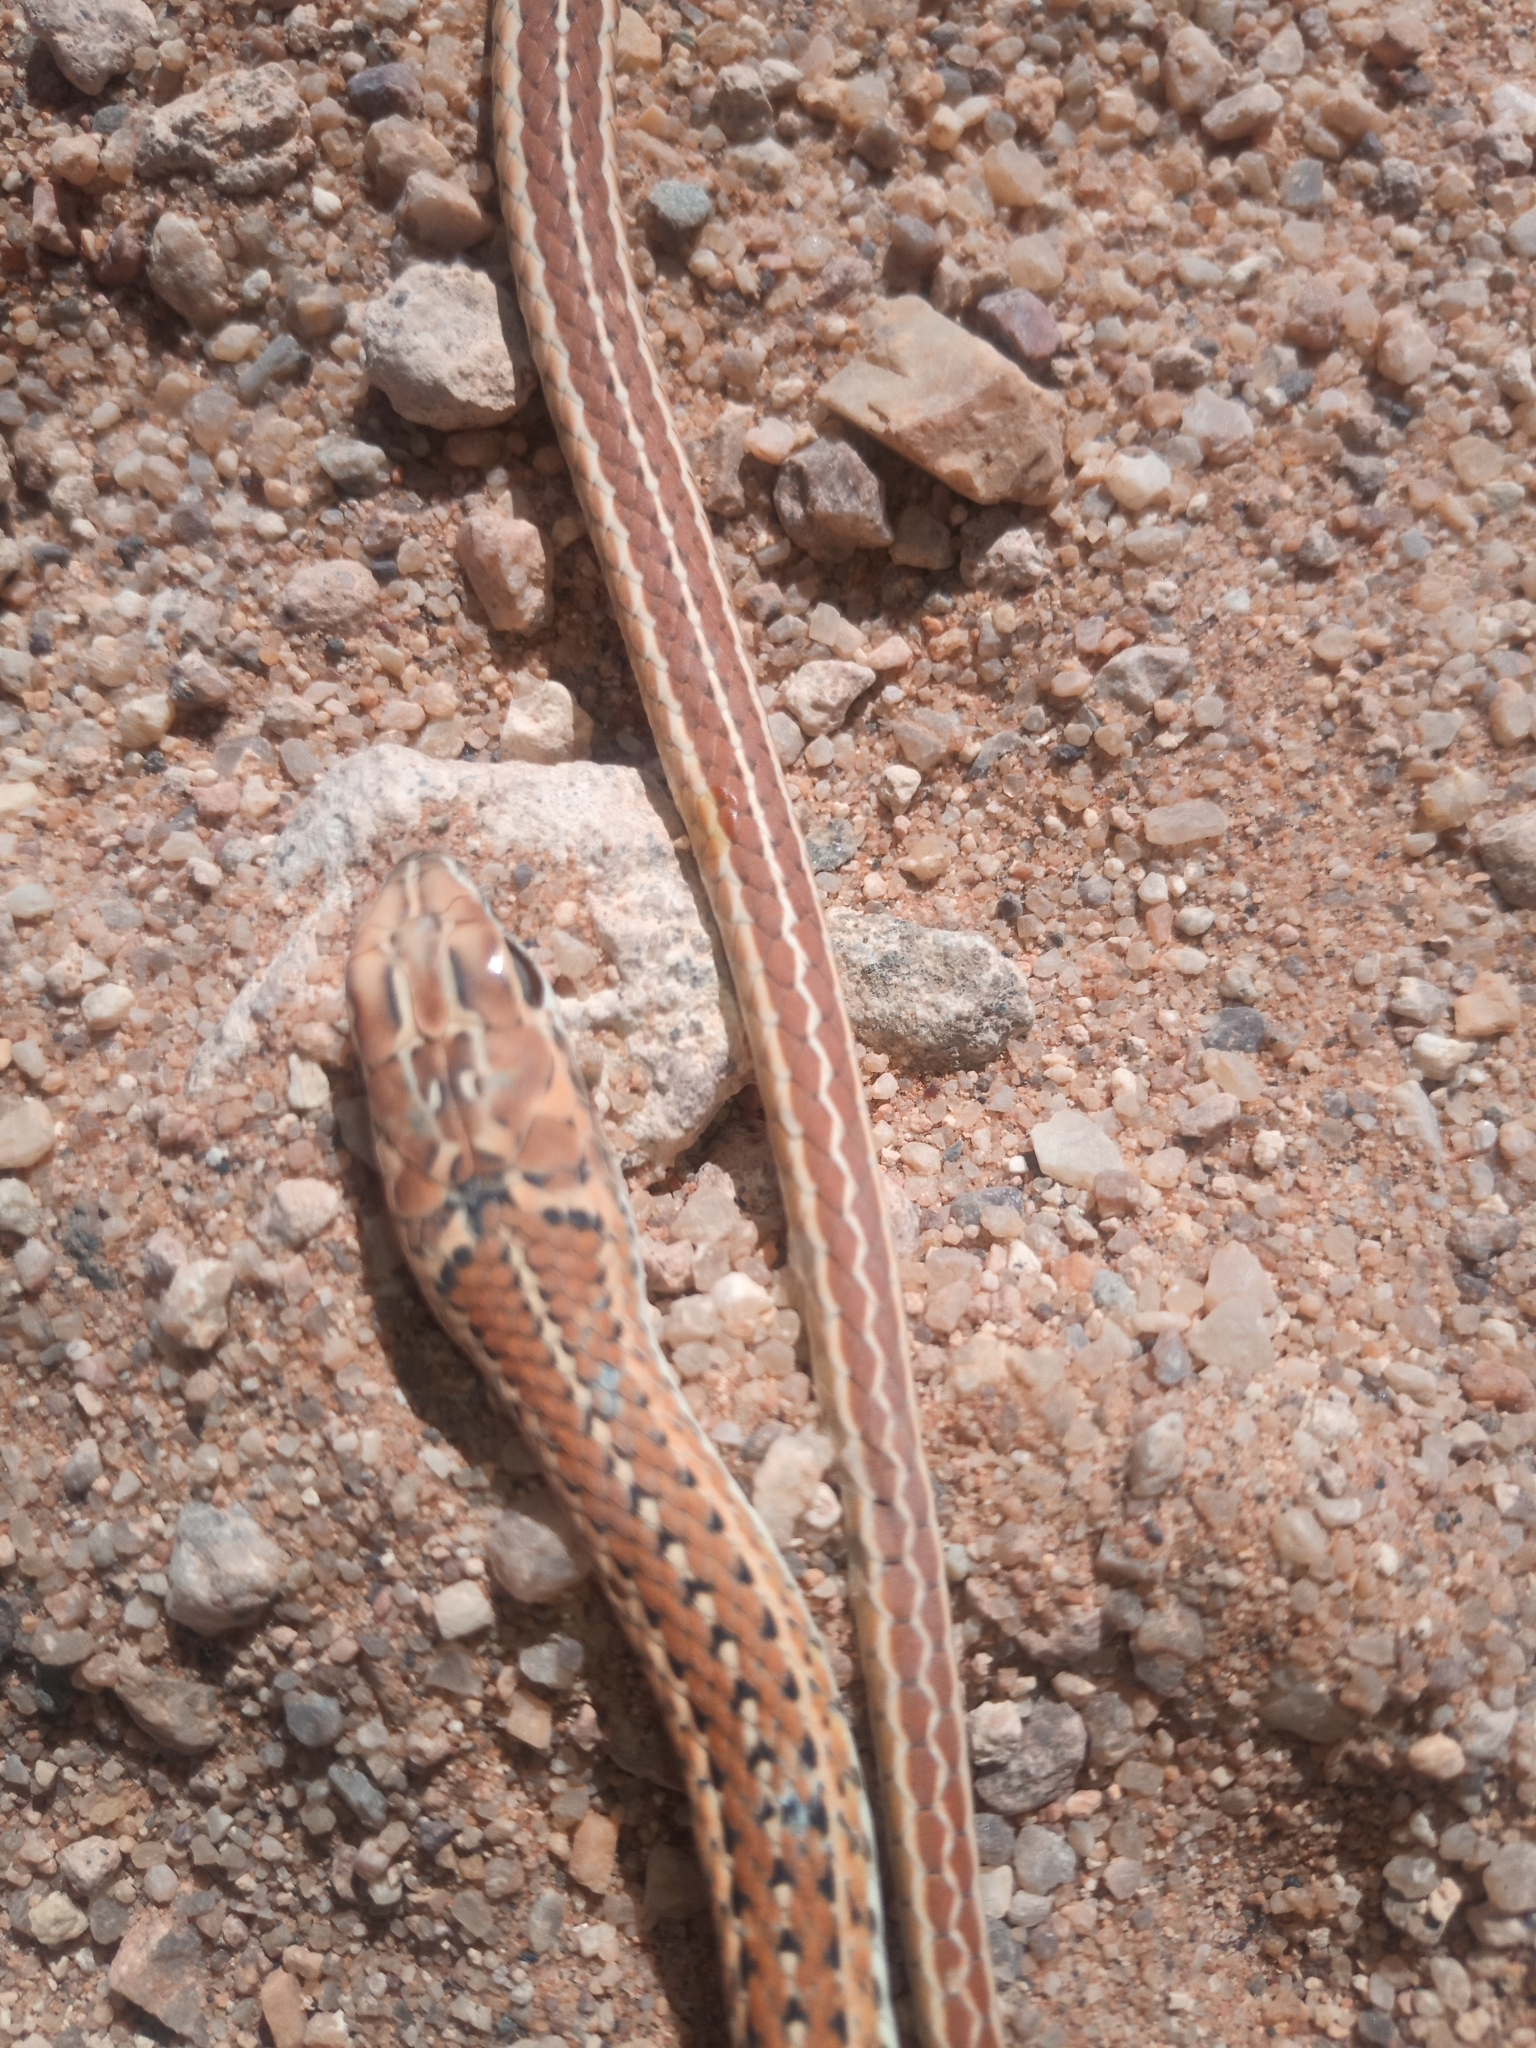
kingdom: Animalia
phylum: Chordata
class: Squamata
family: Psammophiidae
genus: Psammophis
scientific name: Psammophis leightoni
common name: Cape sand snake
